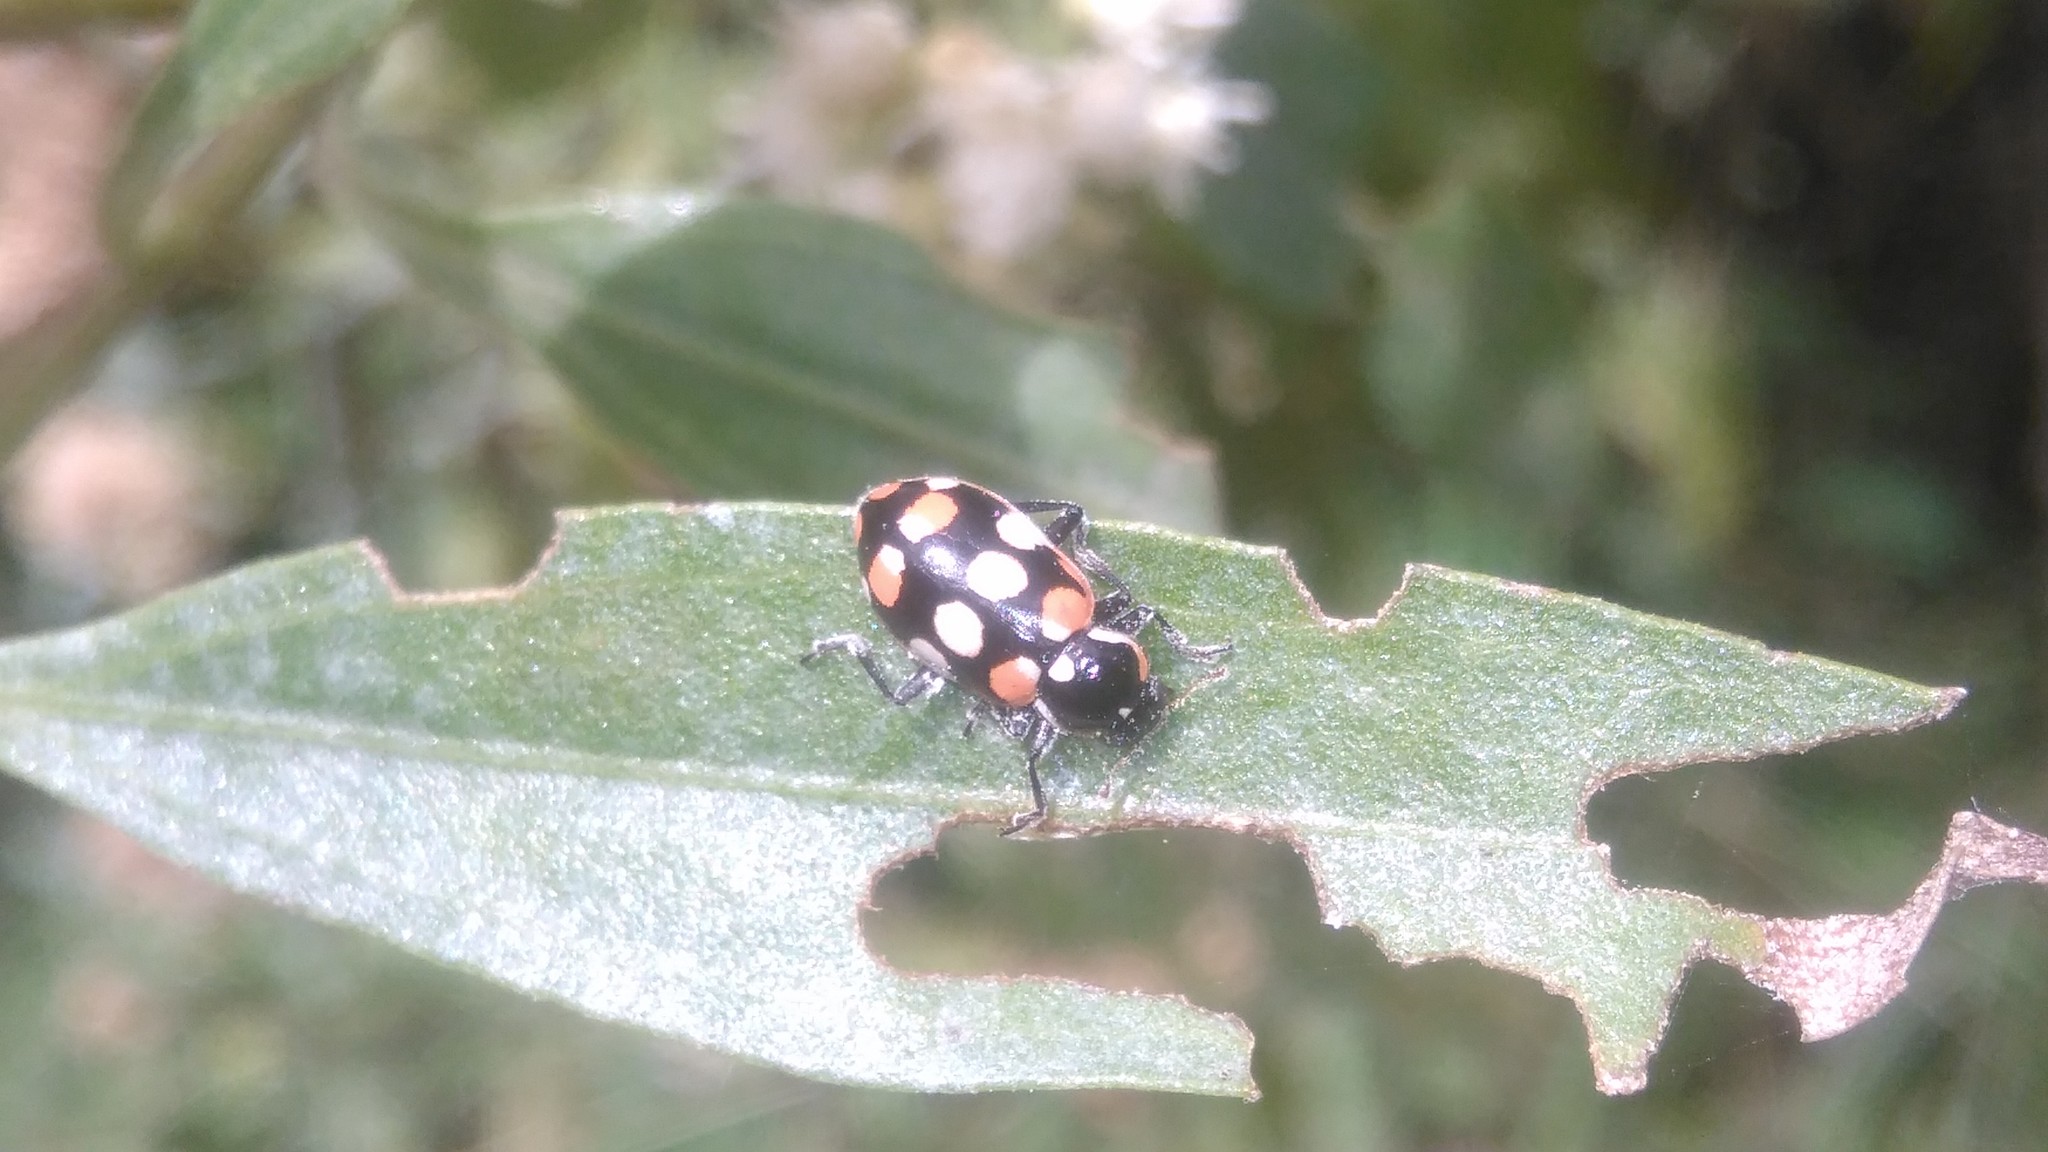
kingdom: Animalia
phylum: Arthropoda
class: Insecta
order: Coleoptera
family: Coccinellidae
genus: Eriopis
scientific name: Eriopis connexa
